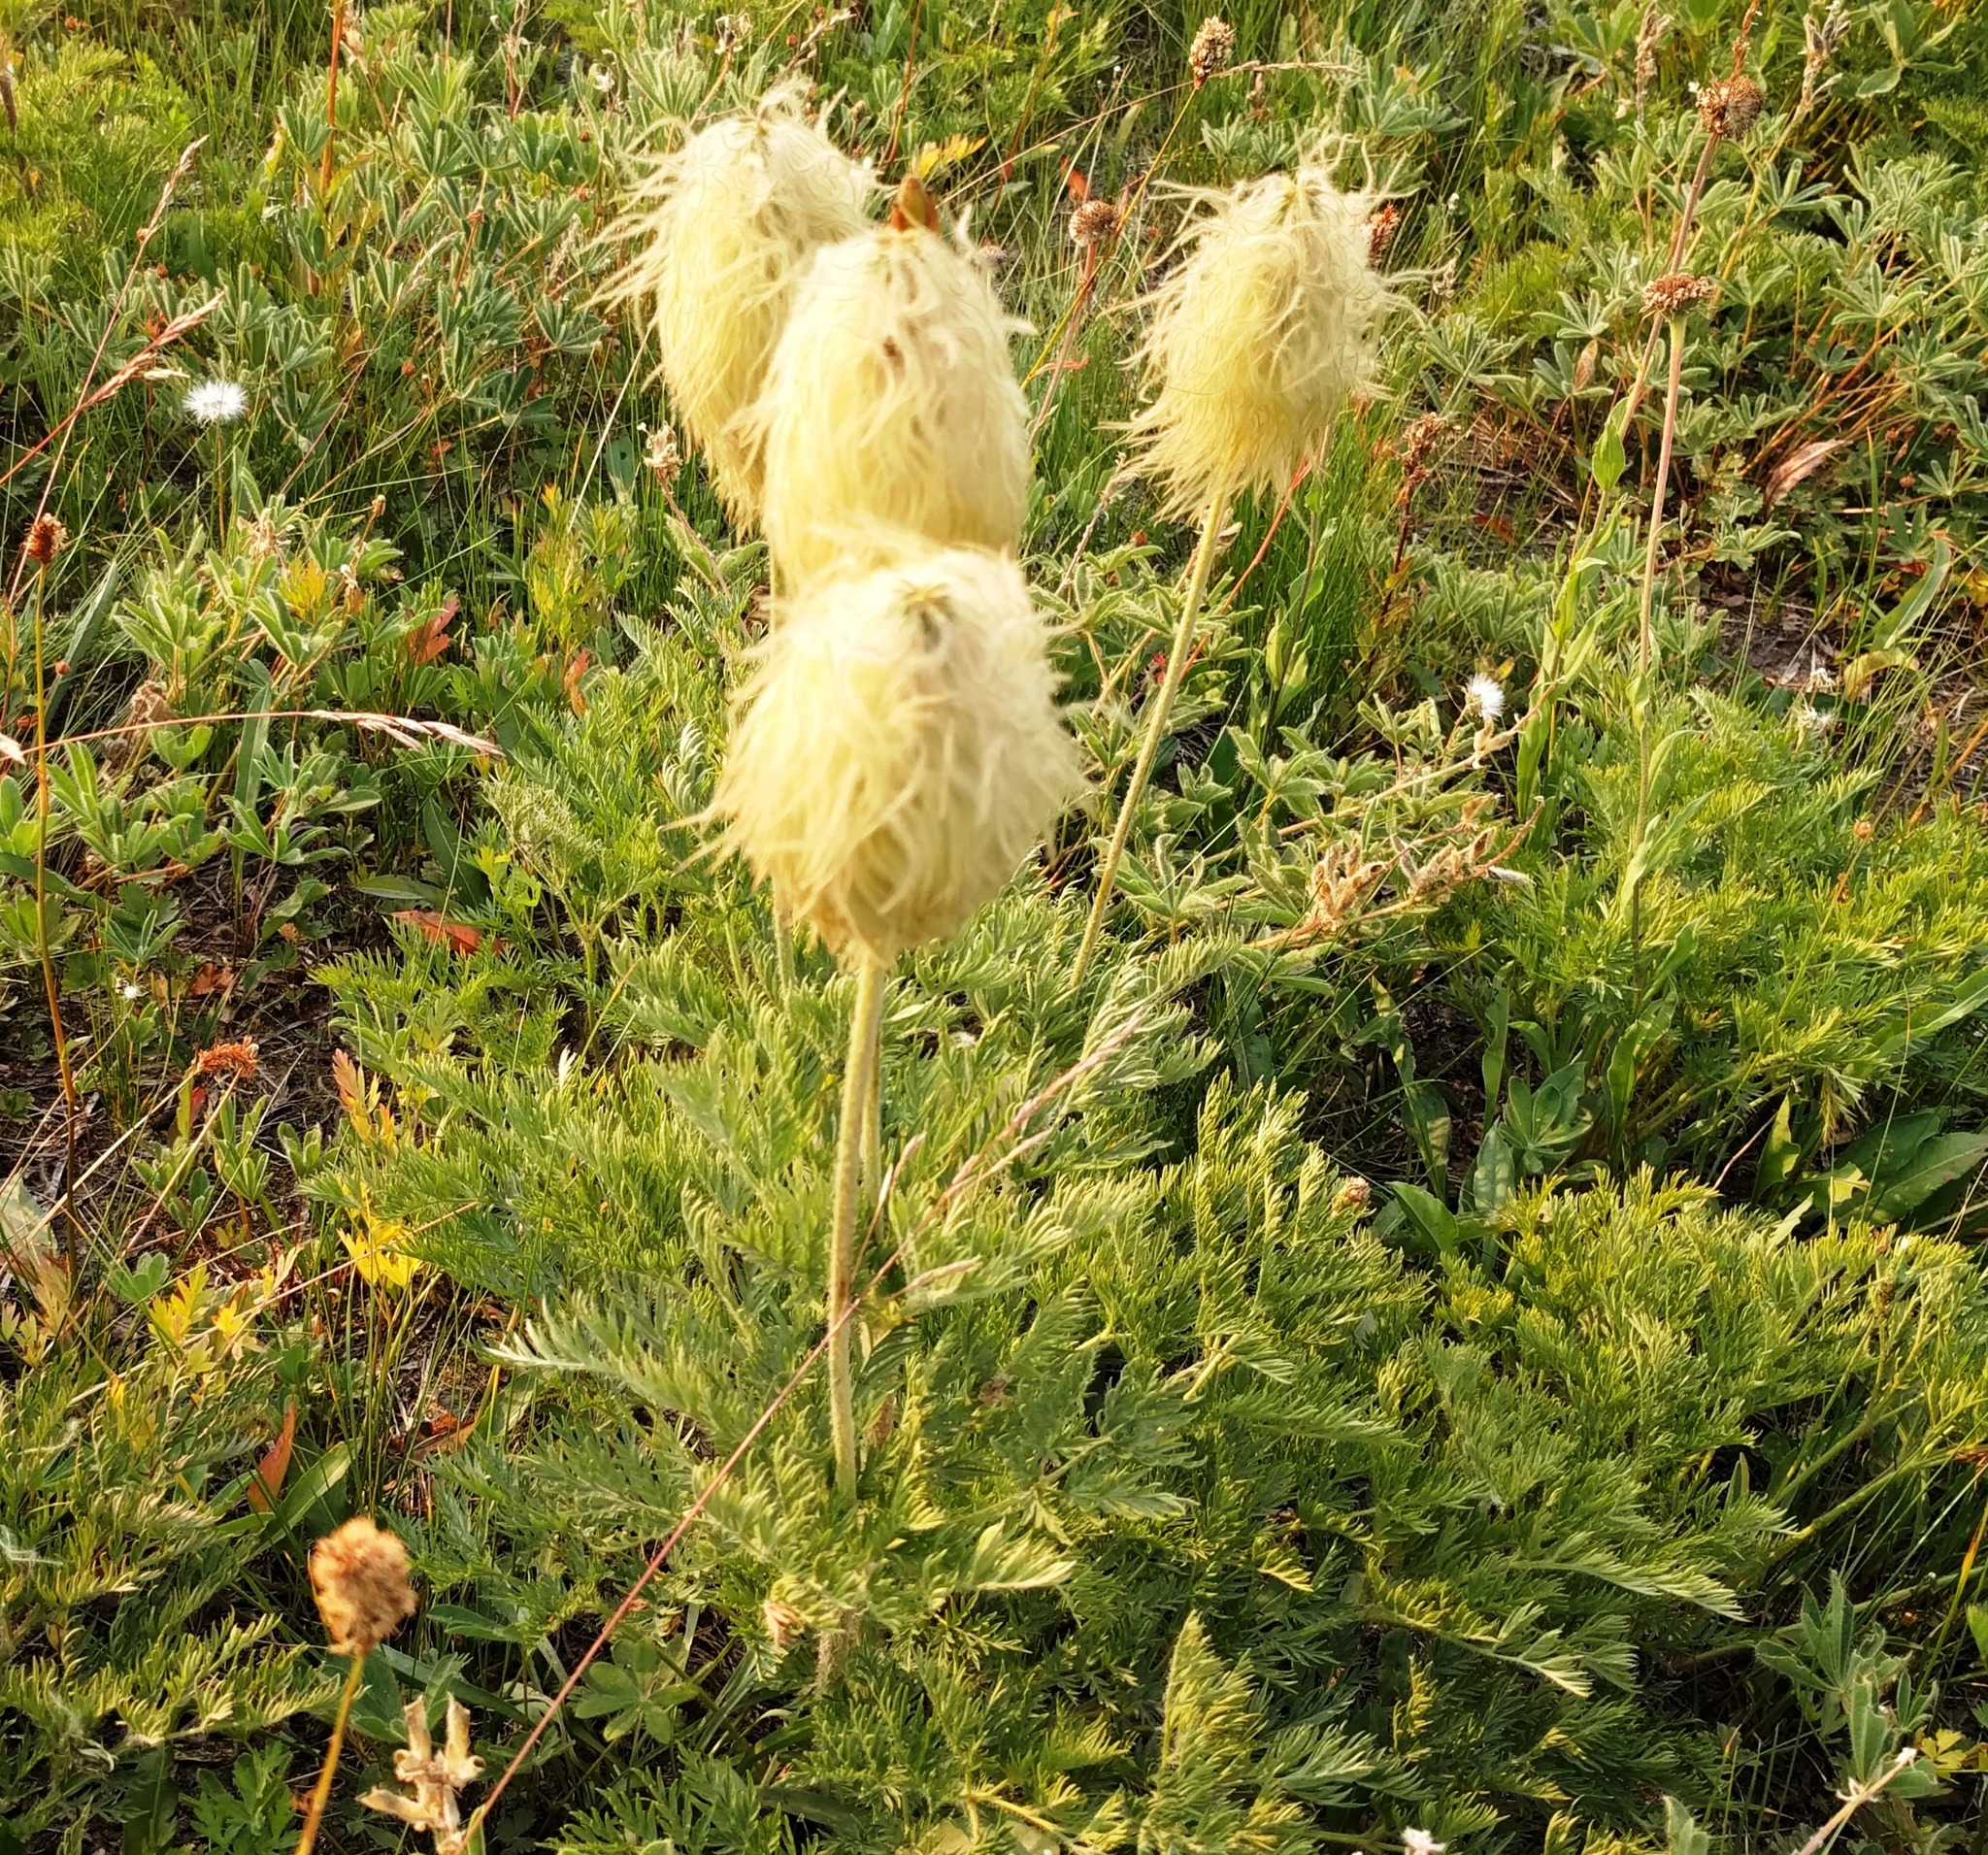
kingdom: Plantae
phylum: Tracheophyta
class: Magnoliopsida
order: Ranunculales
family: Ranunculaceae
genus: Pulsatilla
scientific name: Pulsatilla occidentalis
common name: Mountain pasqueflower
